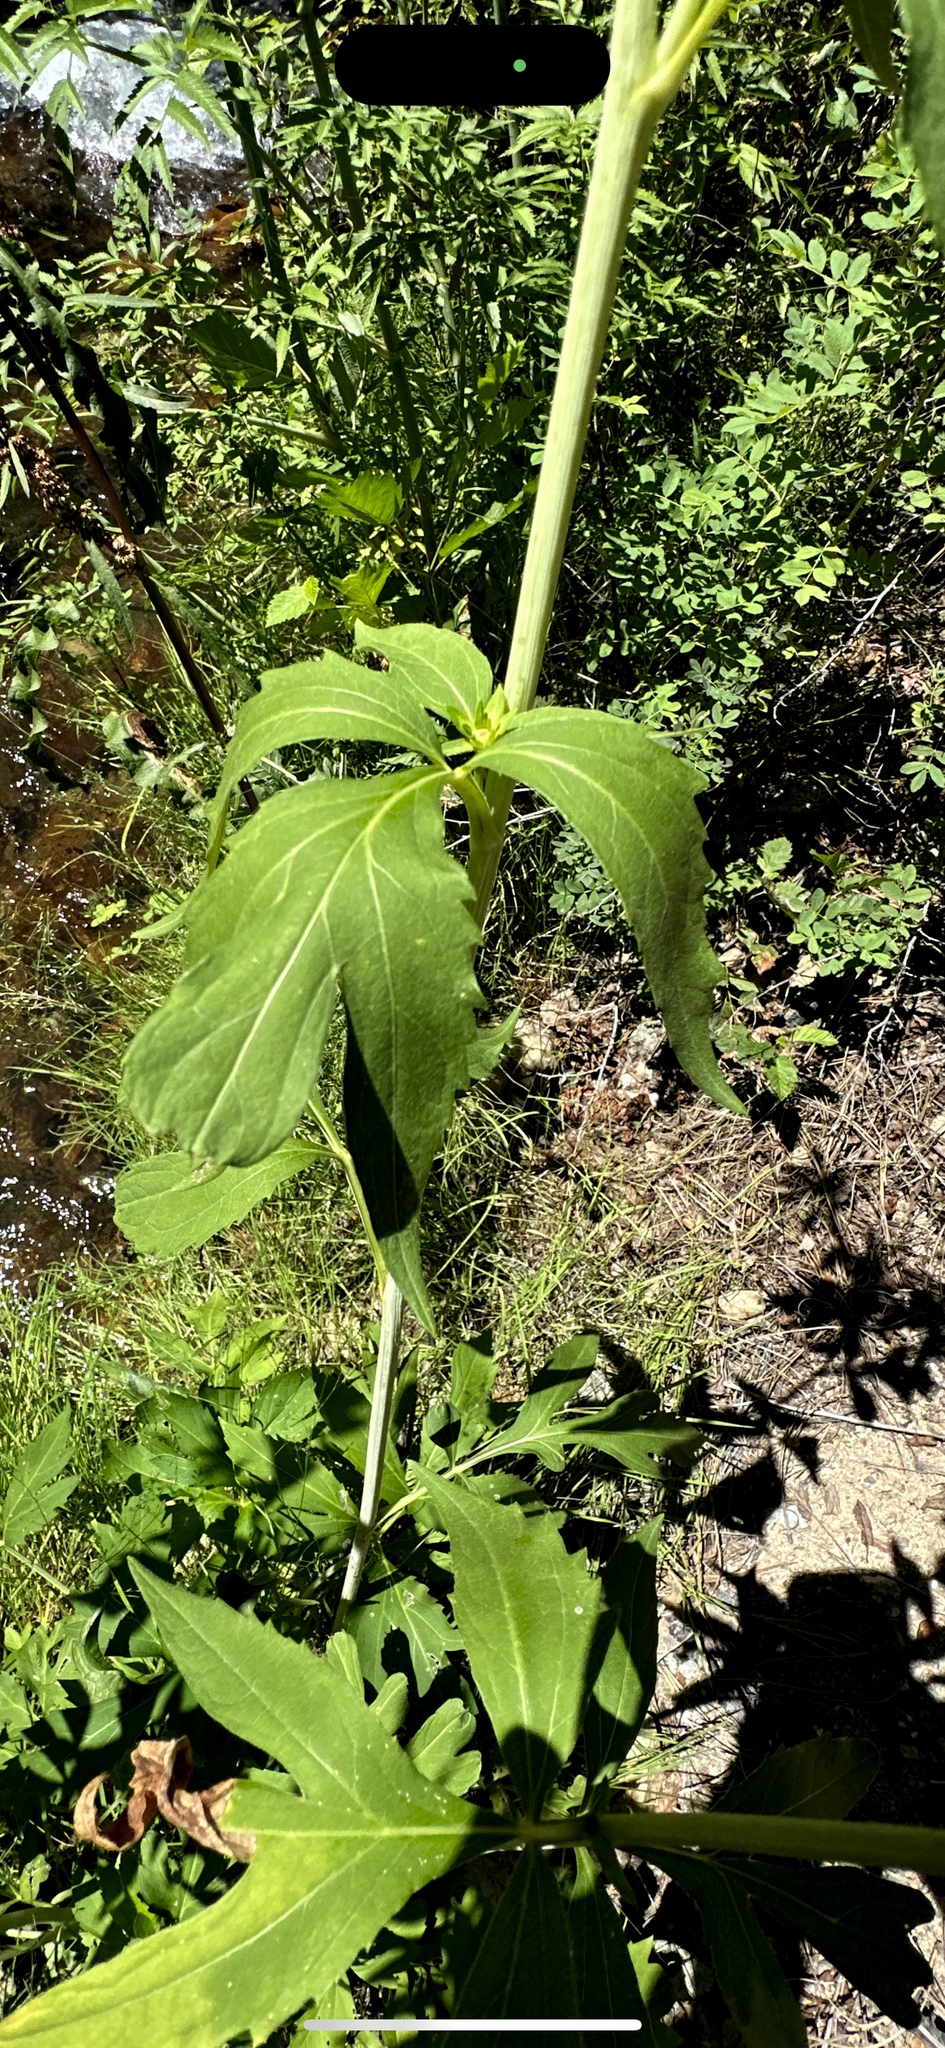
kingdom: Plantae
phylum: Tracheophyta
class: Magnoliopsida
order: Asterales
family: Asteraceae
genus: Rudbeckia
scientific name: Rudbeckia laciniata
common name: Coneflower
